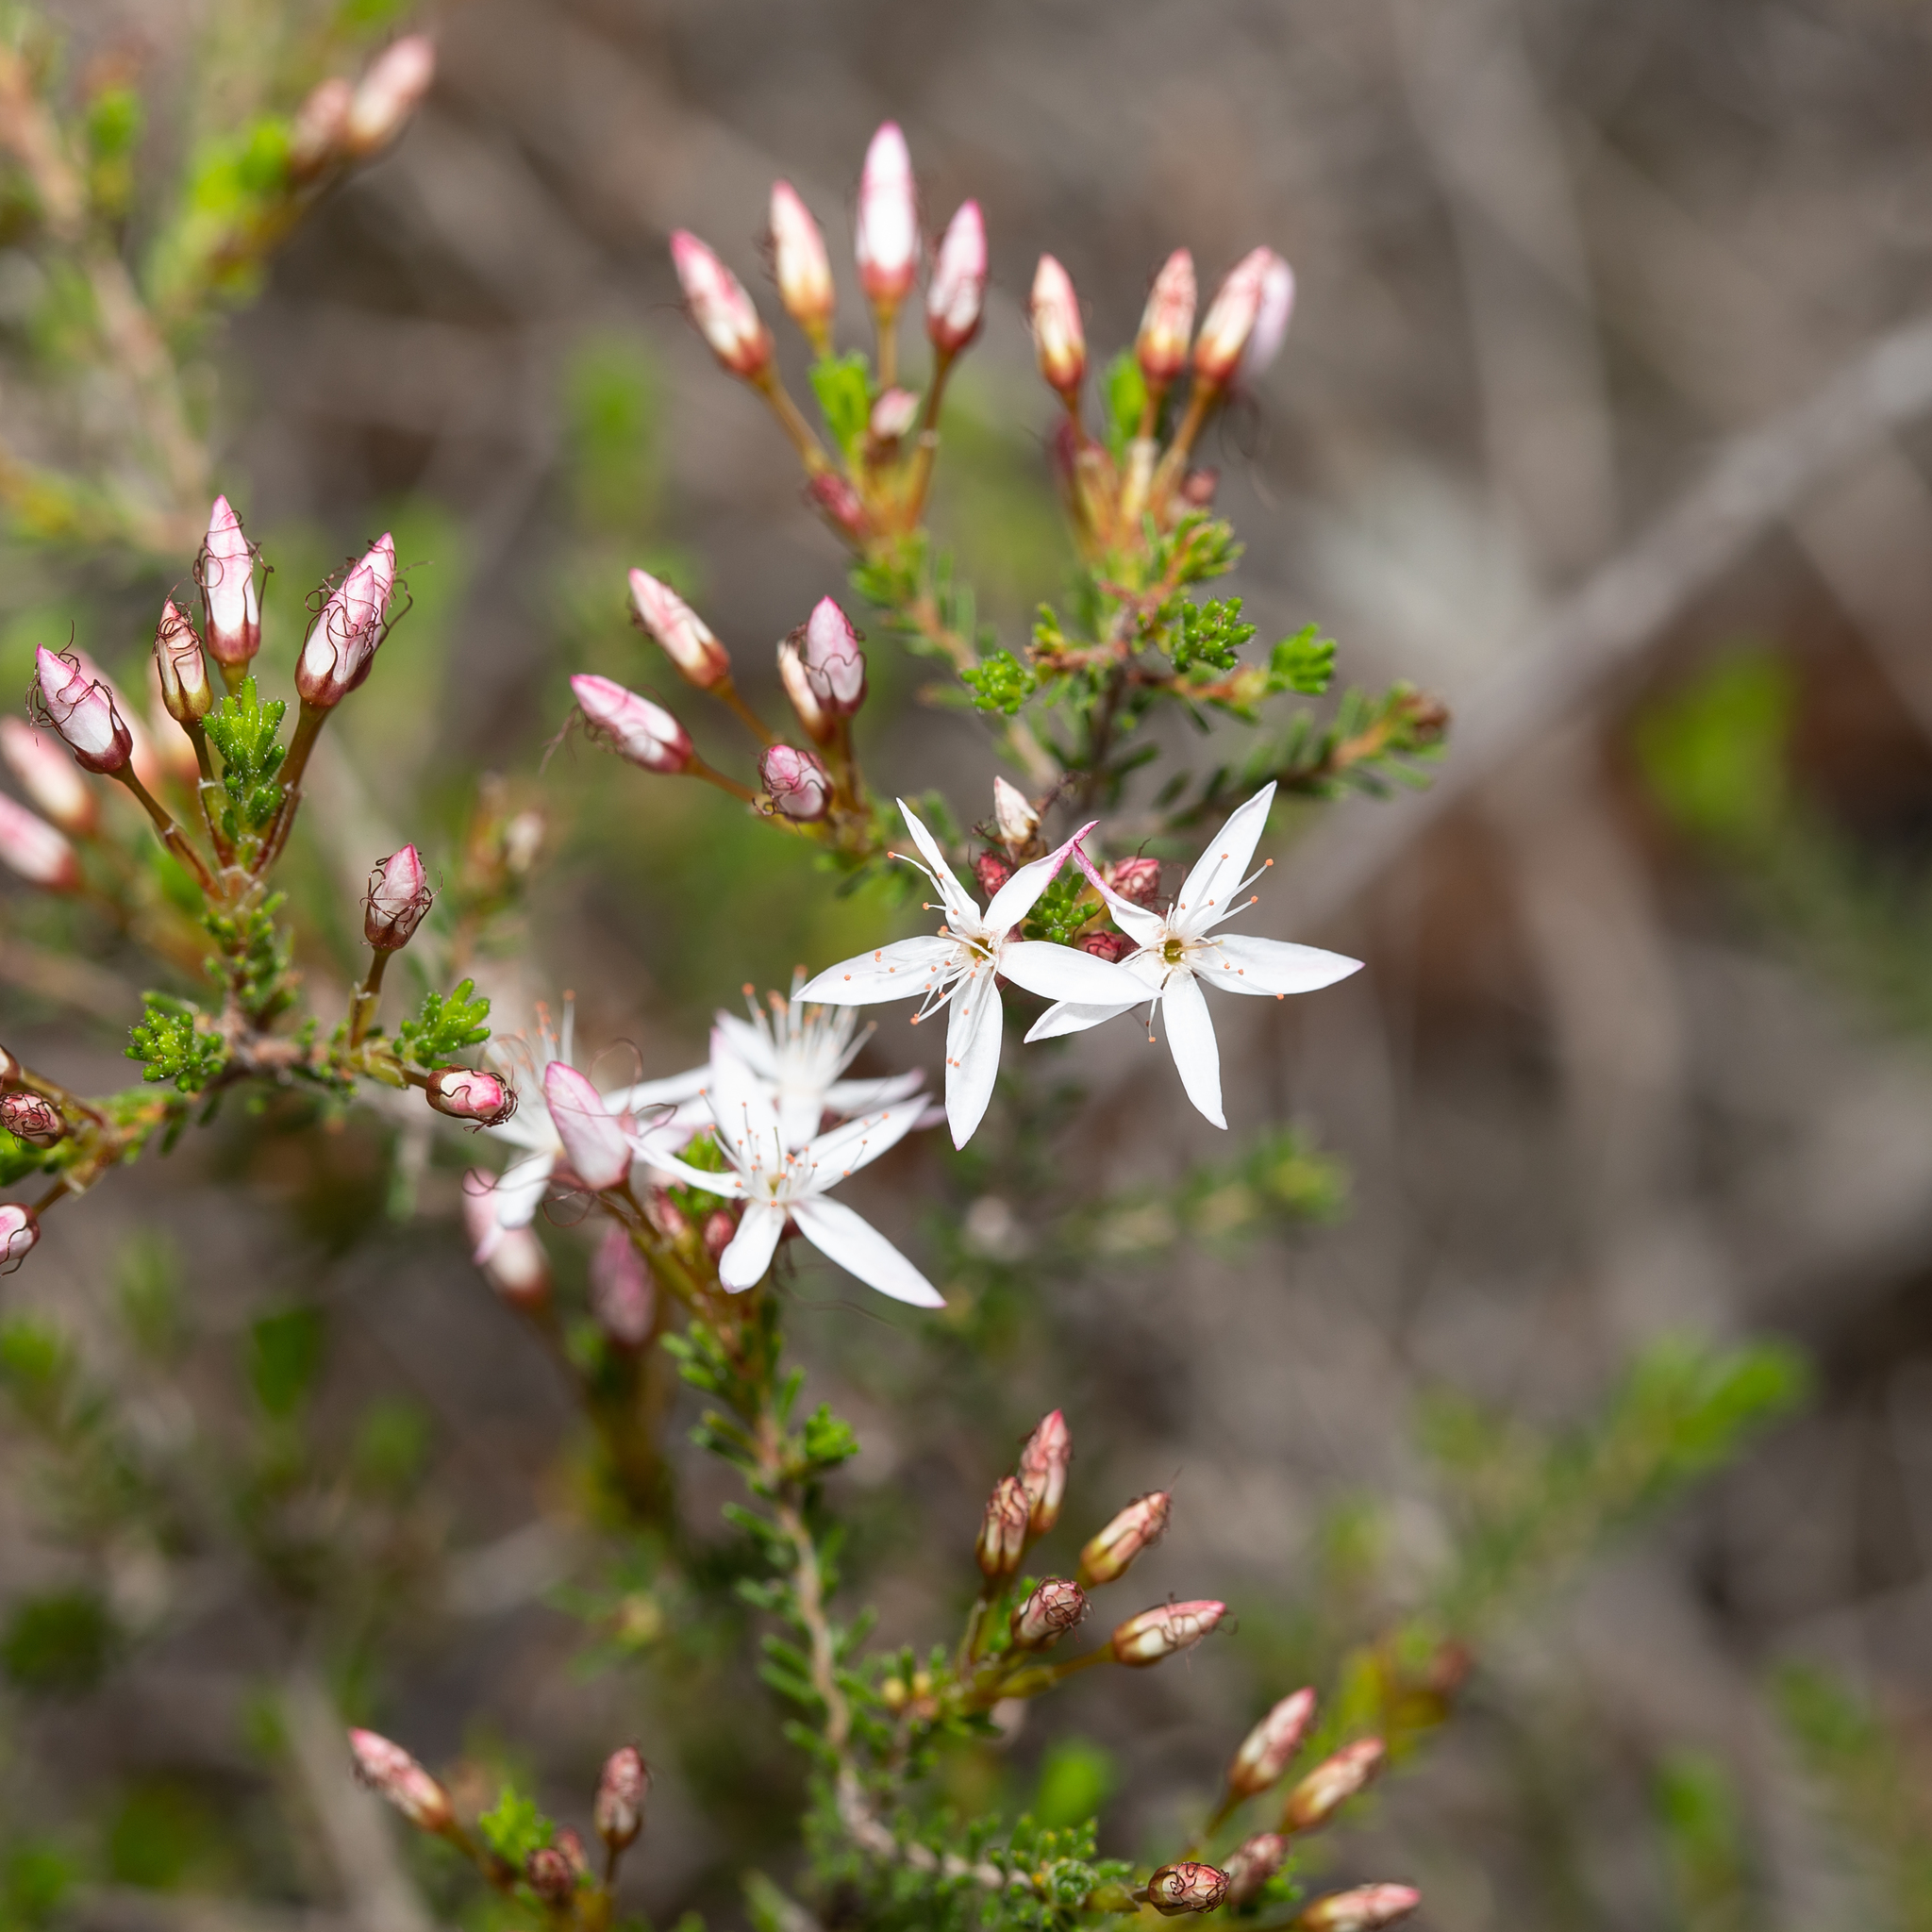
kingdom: Plantae
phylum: Tracheophyta
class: Magnoliopsida
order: Myrtales
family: Myrtaceae
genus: Calytrix
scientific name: Calytrix tetragona
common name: Common fringe myrtle
